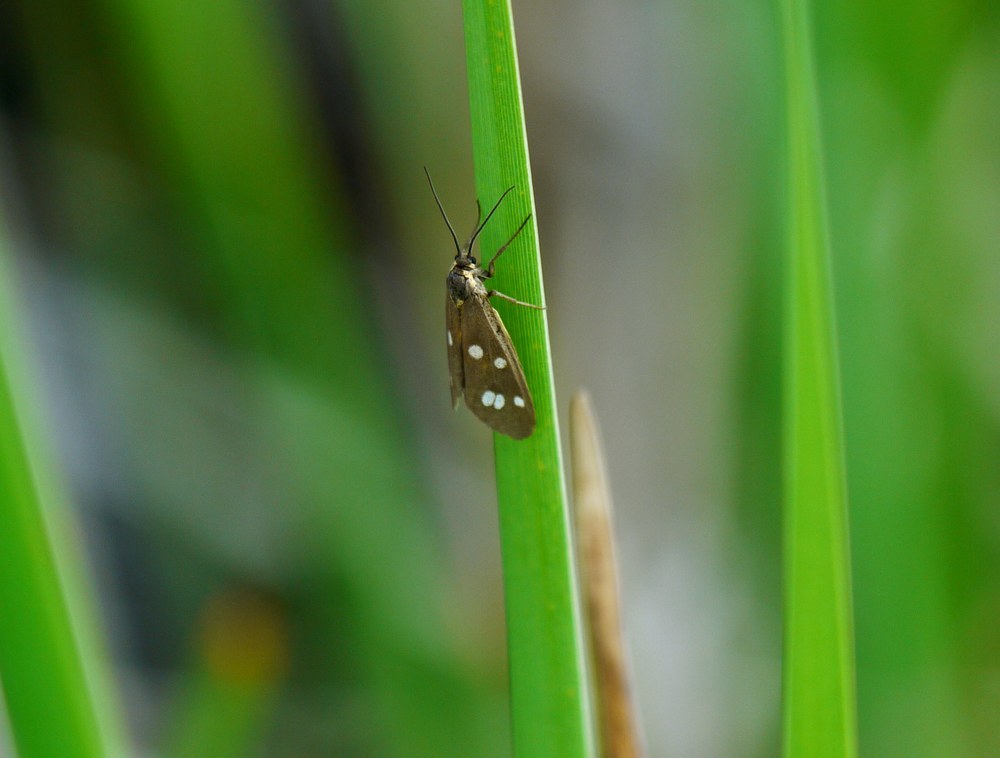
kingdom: Animalia
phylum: Arthropoda
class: Insecta
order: Lepidoptera
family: Erebidae
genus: Dysauxes
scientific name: Dysauxes punctata
